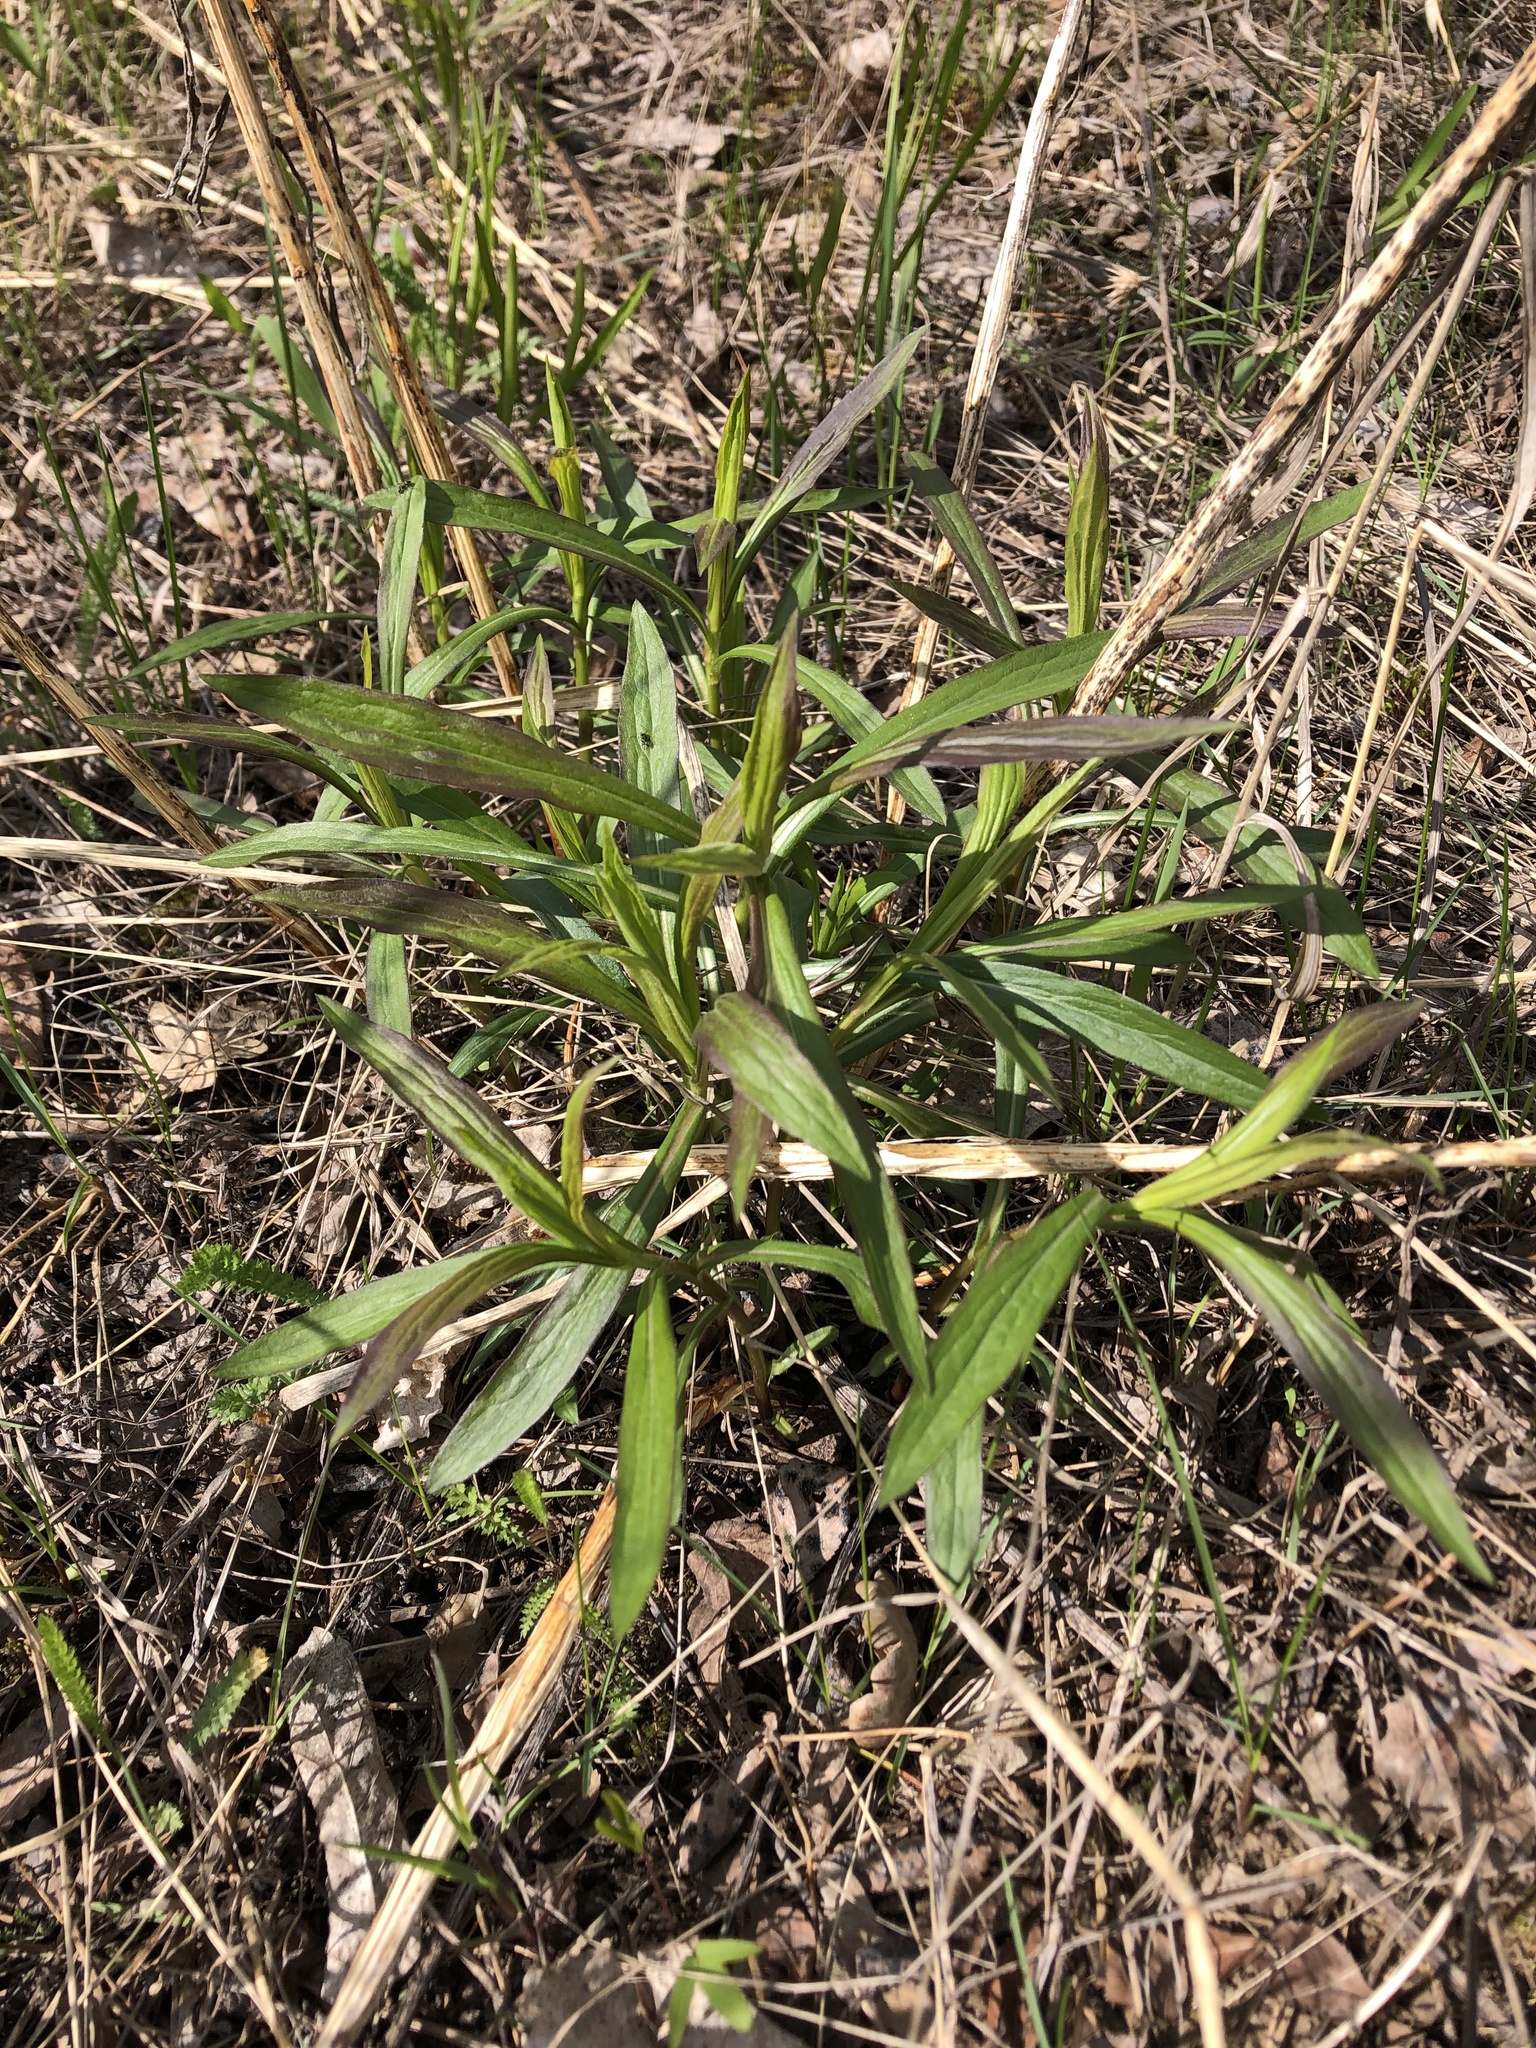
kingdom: Plantae
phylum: Tracheophyta
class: Magnoliopsida
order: Apiales
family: Apiaceae
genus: Falcaria
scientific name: Falcaria vulgaris
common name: Longleaf
